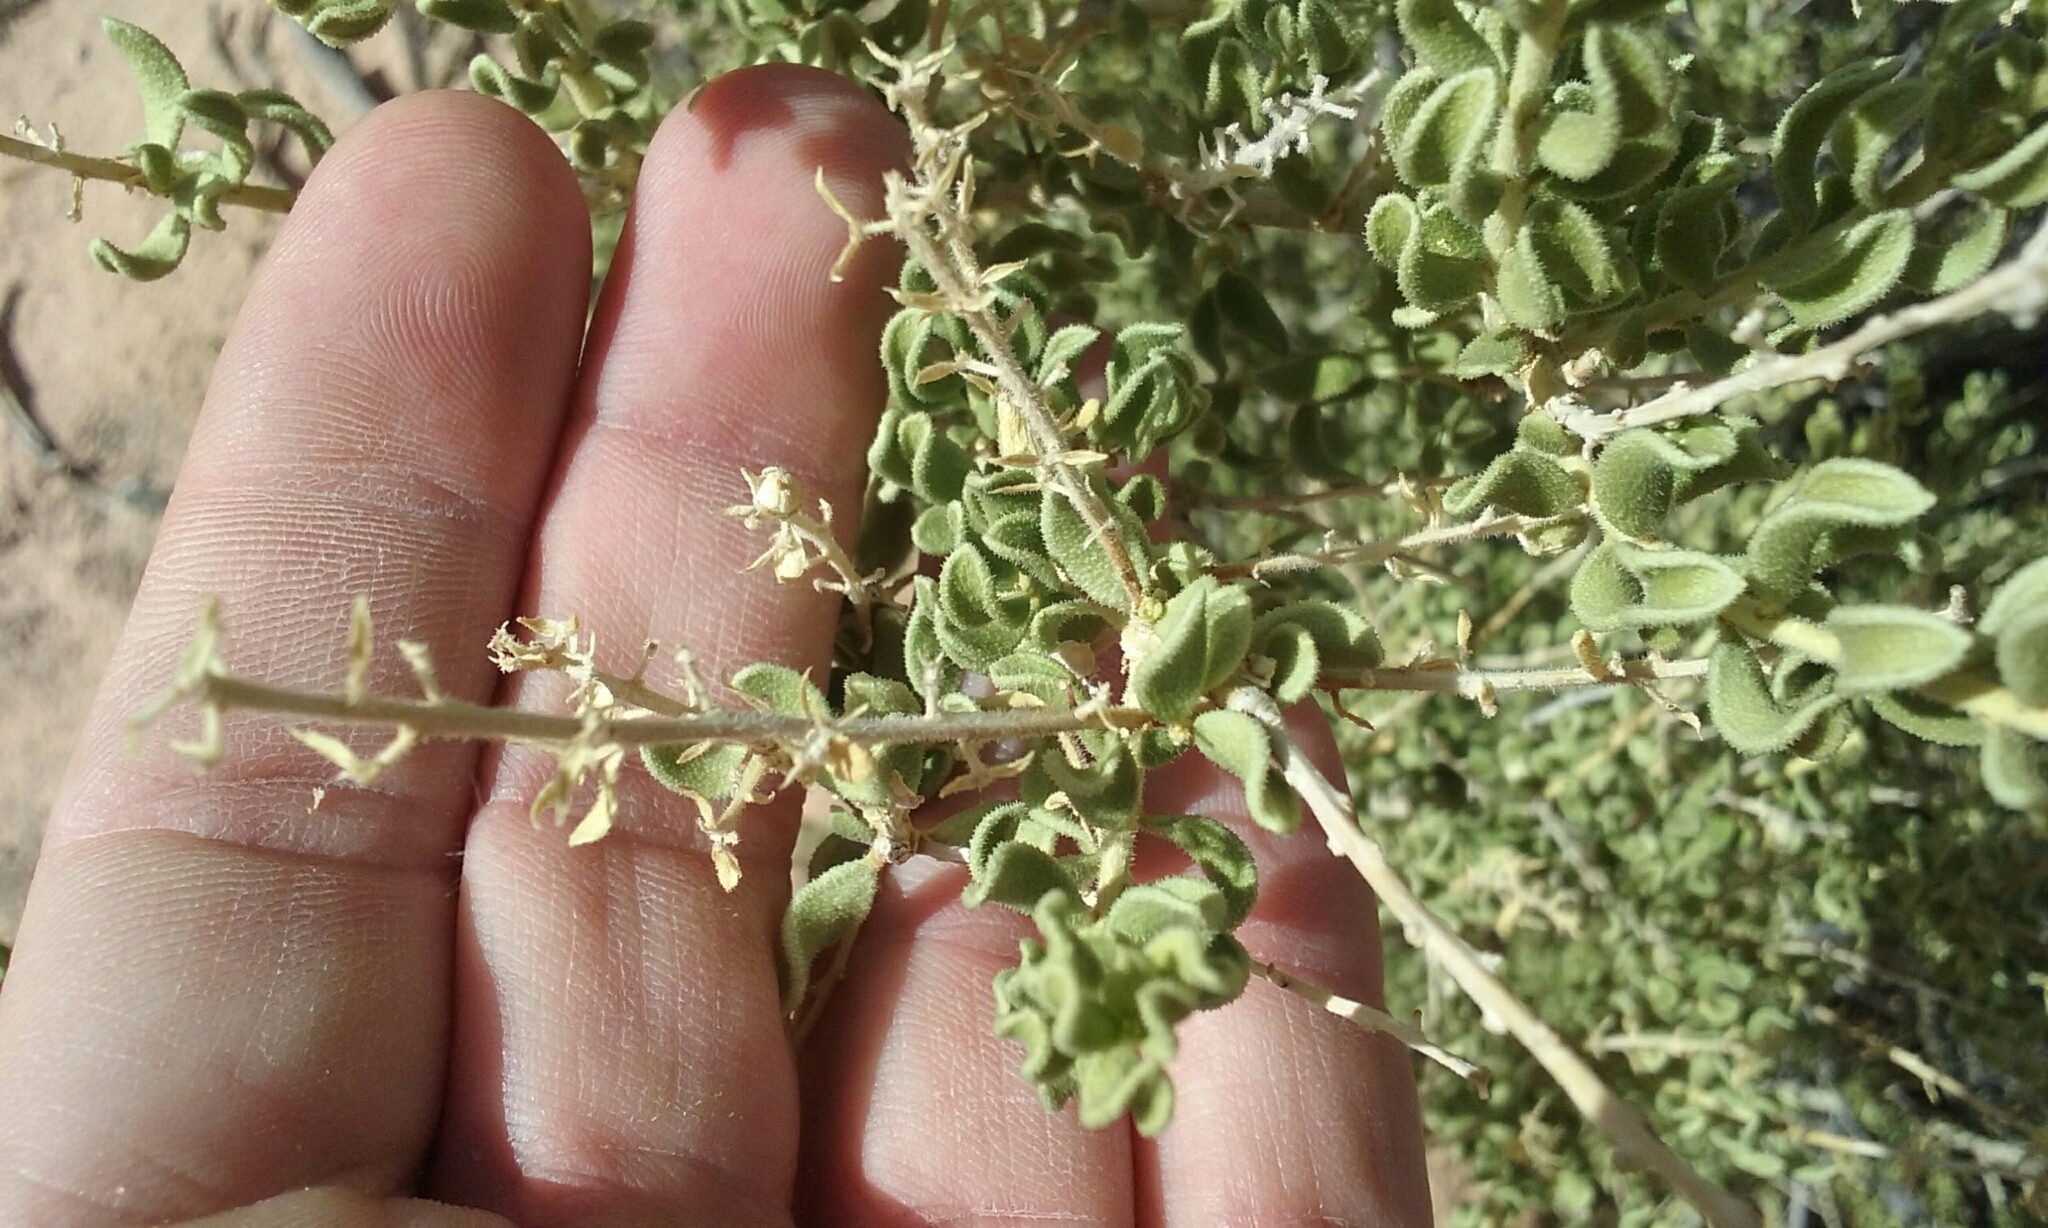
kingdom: Plantae
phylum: Tracheophyta
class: Magnoliopsida
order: Celastrales
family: Celastraceae
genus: Mortonia
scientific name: Mortonia utahensis
